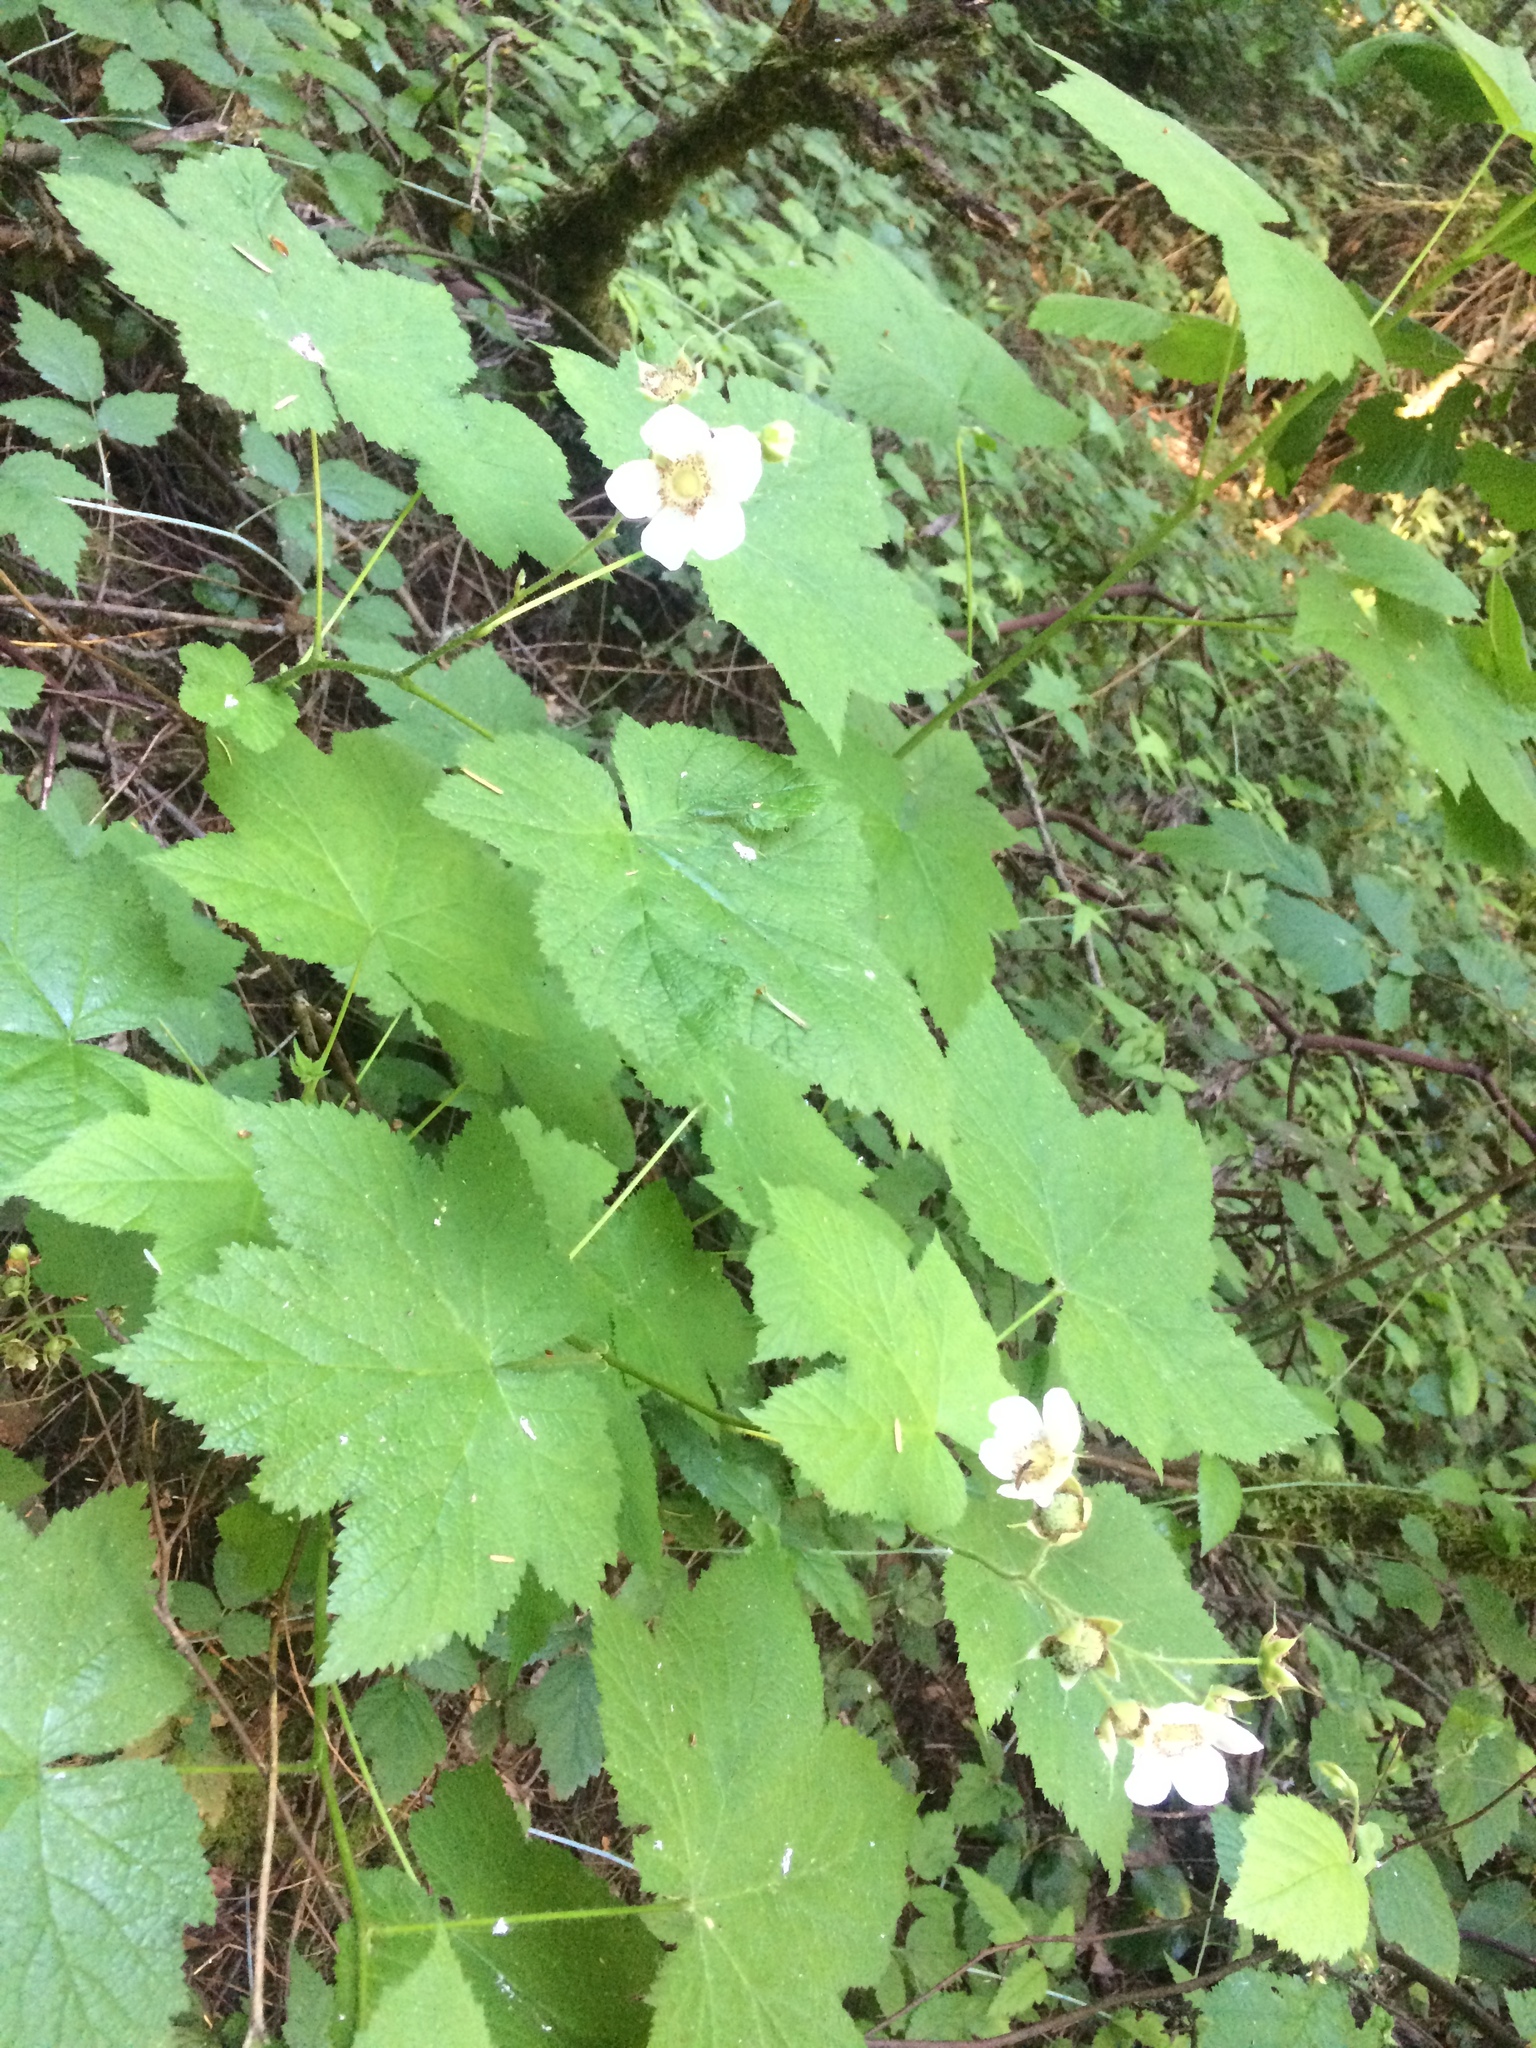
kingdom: Plantae
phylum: Tracheophyta
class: Magnoliopsida
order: Rosales
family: Rosaceae
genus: Rubus
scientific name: Rubus parviflorus
